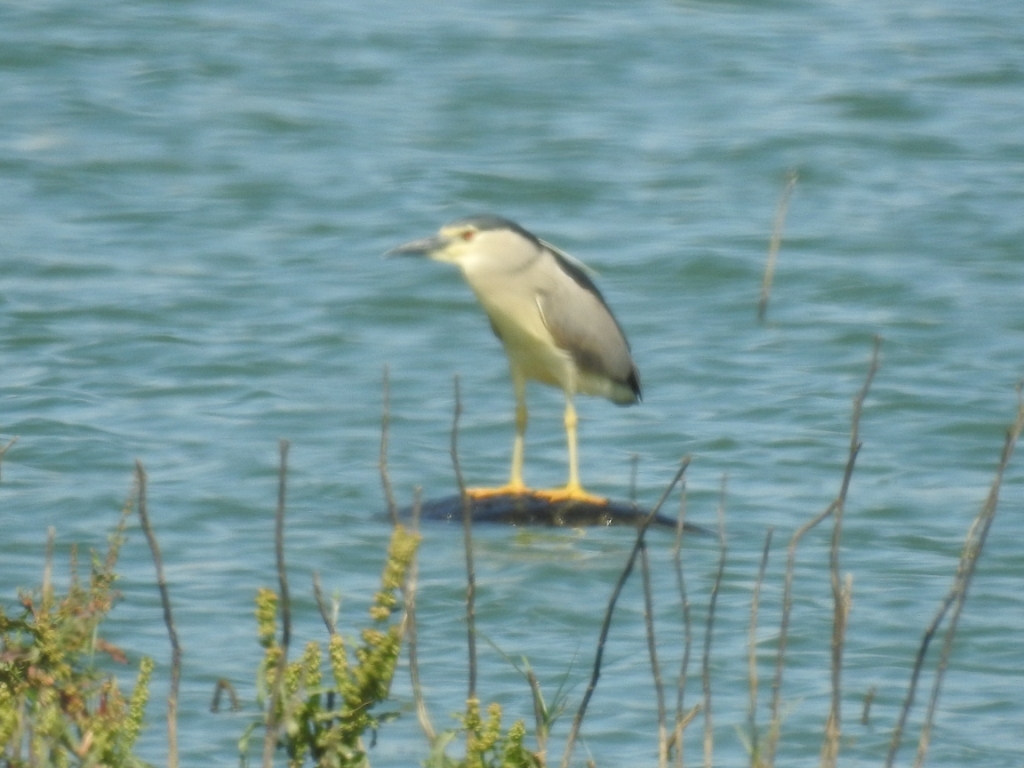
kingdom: Animalia
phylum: Chordata
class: Aves
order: Pelecaniformes
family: Ardeidae
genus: Nycticorax
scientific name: Nycticorax nycticorax
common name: Black-crowned night heron
